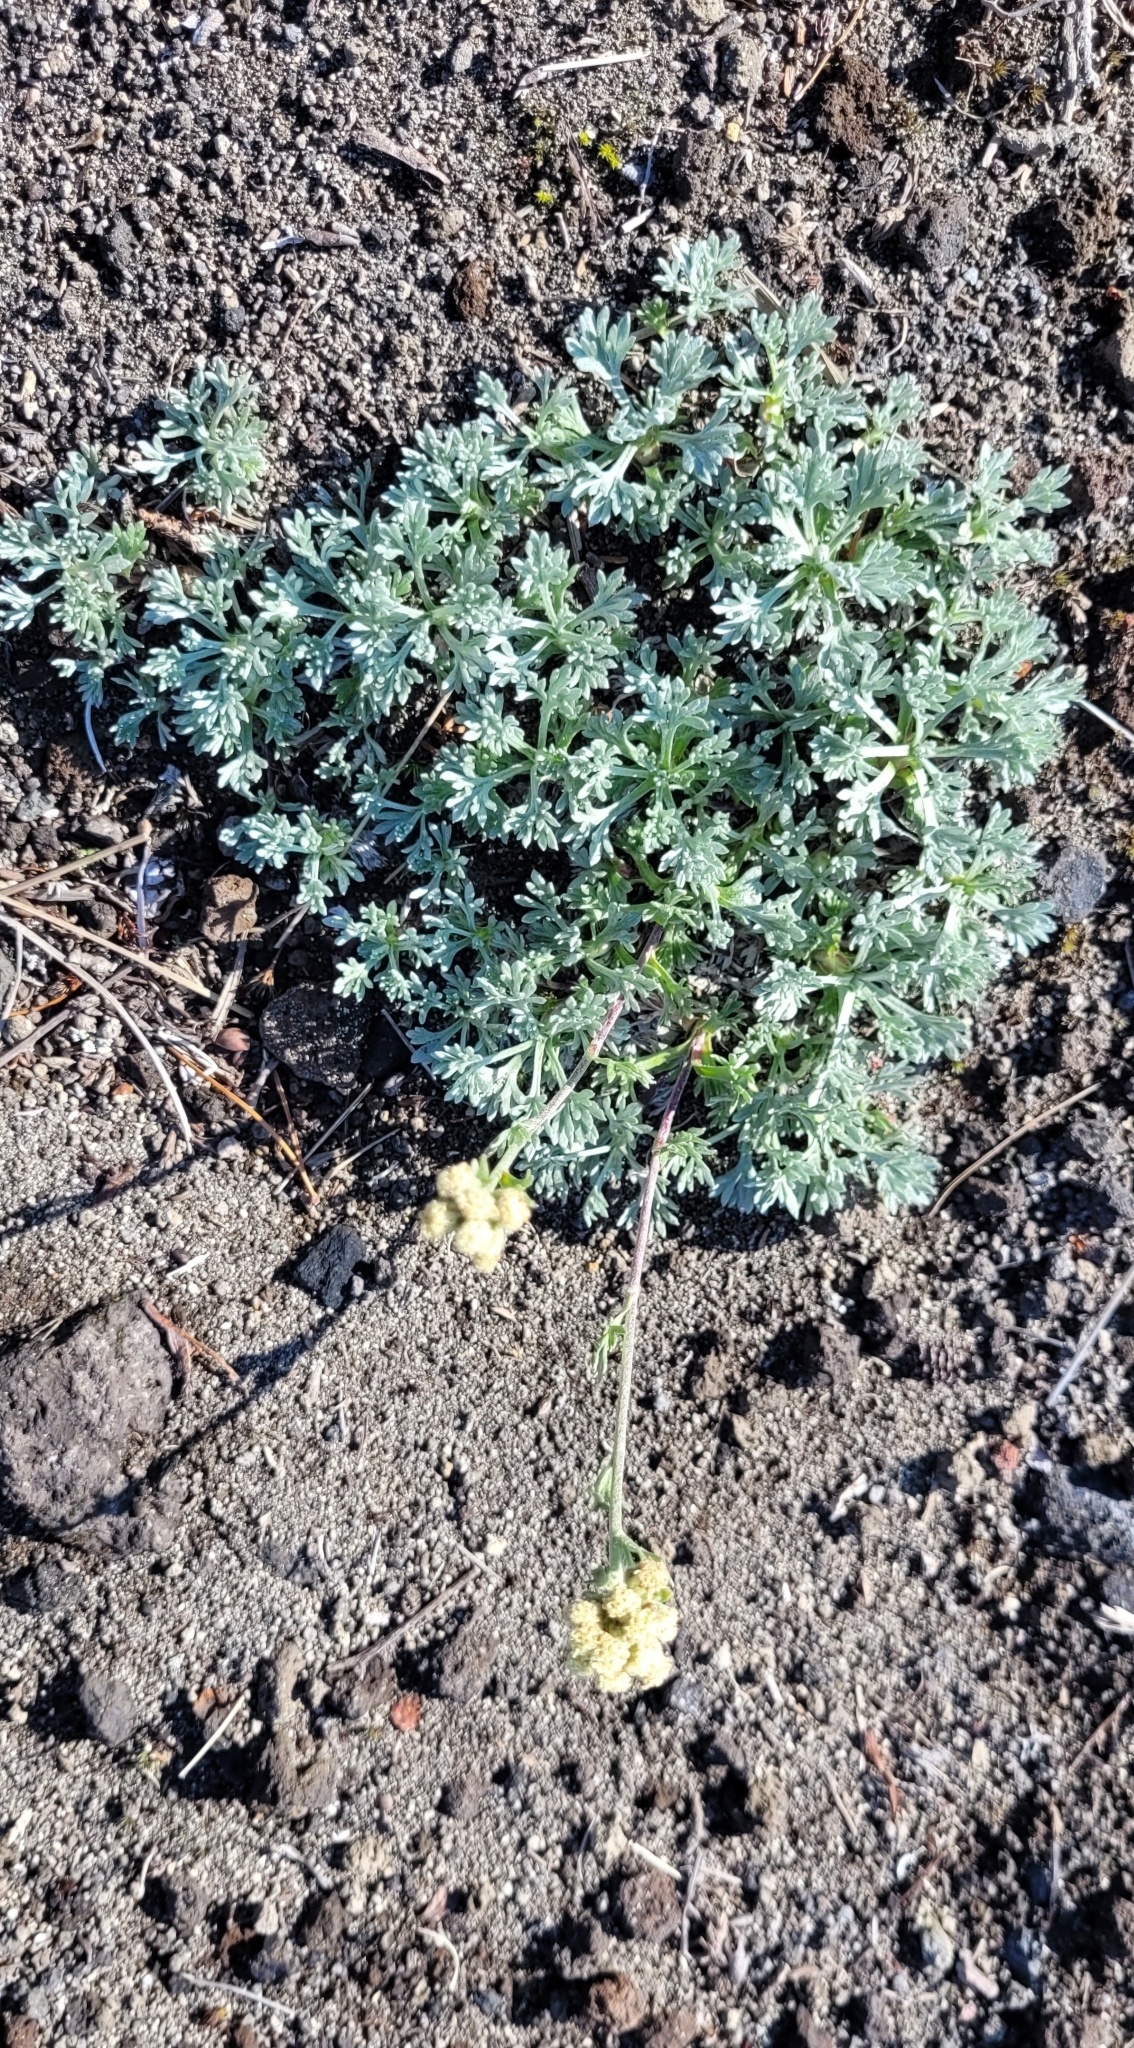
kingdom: Plantae
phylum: Tracheophyta
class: Magnoliopsida
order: Asterales
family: Asteraceae
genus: Artemisia
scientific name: Artemisia glomerata
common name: Pacific alpine wormwood
